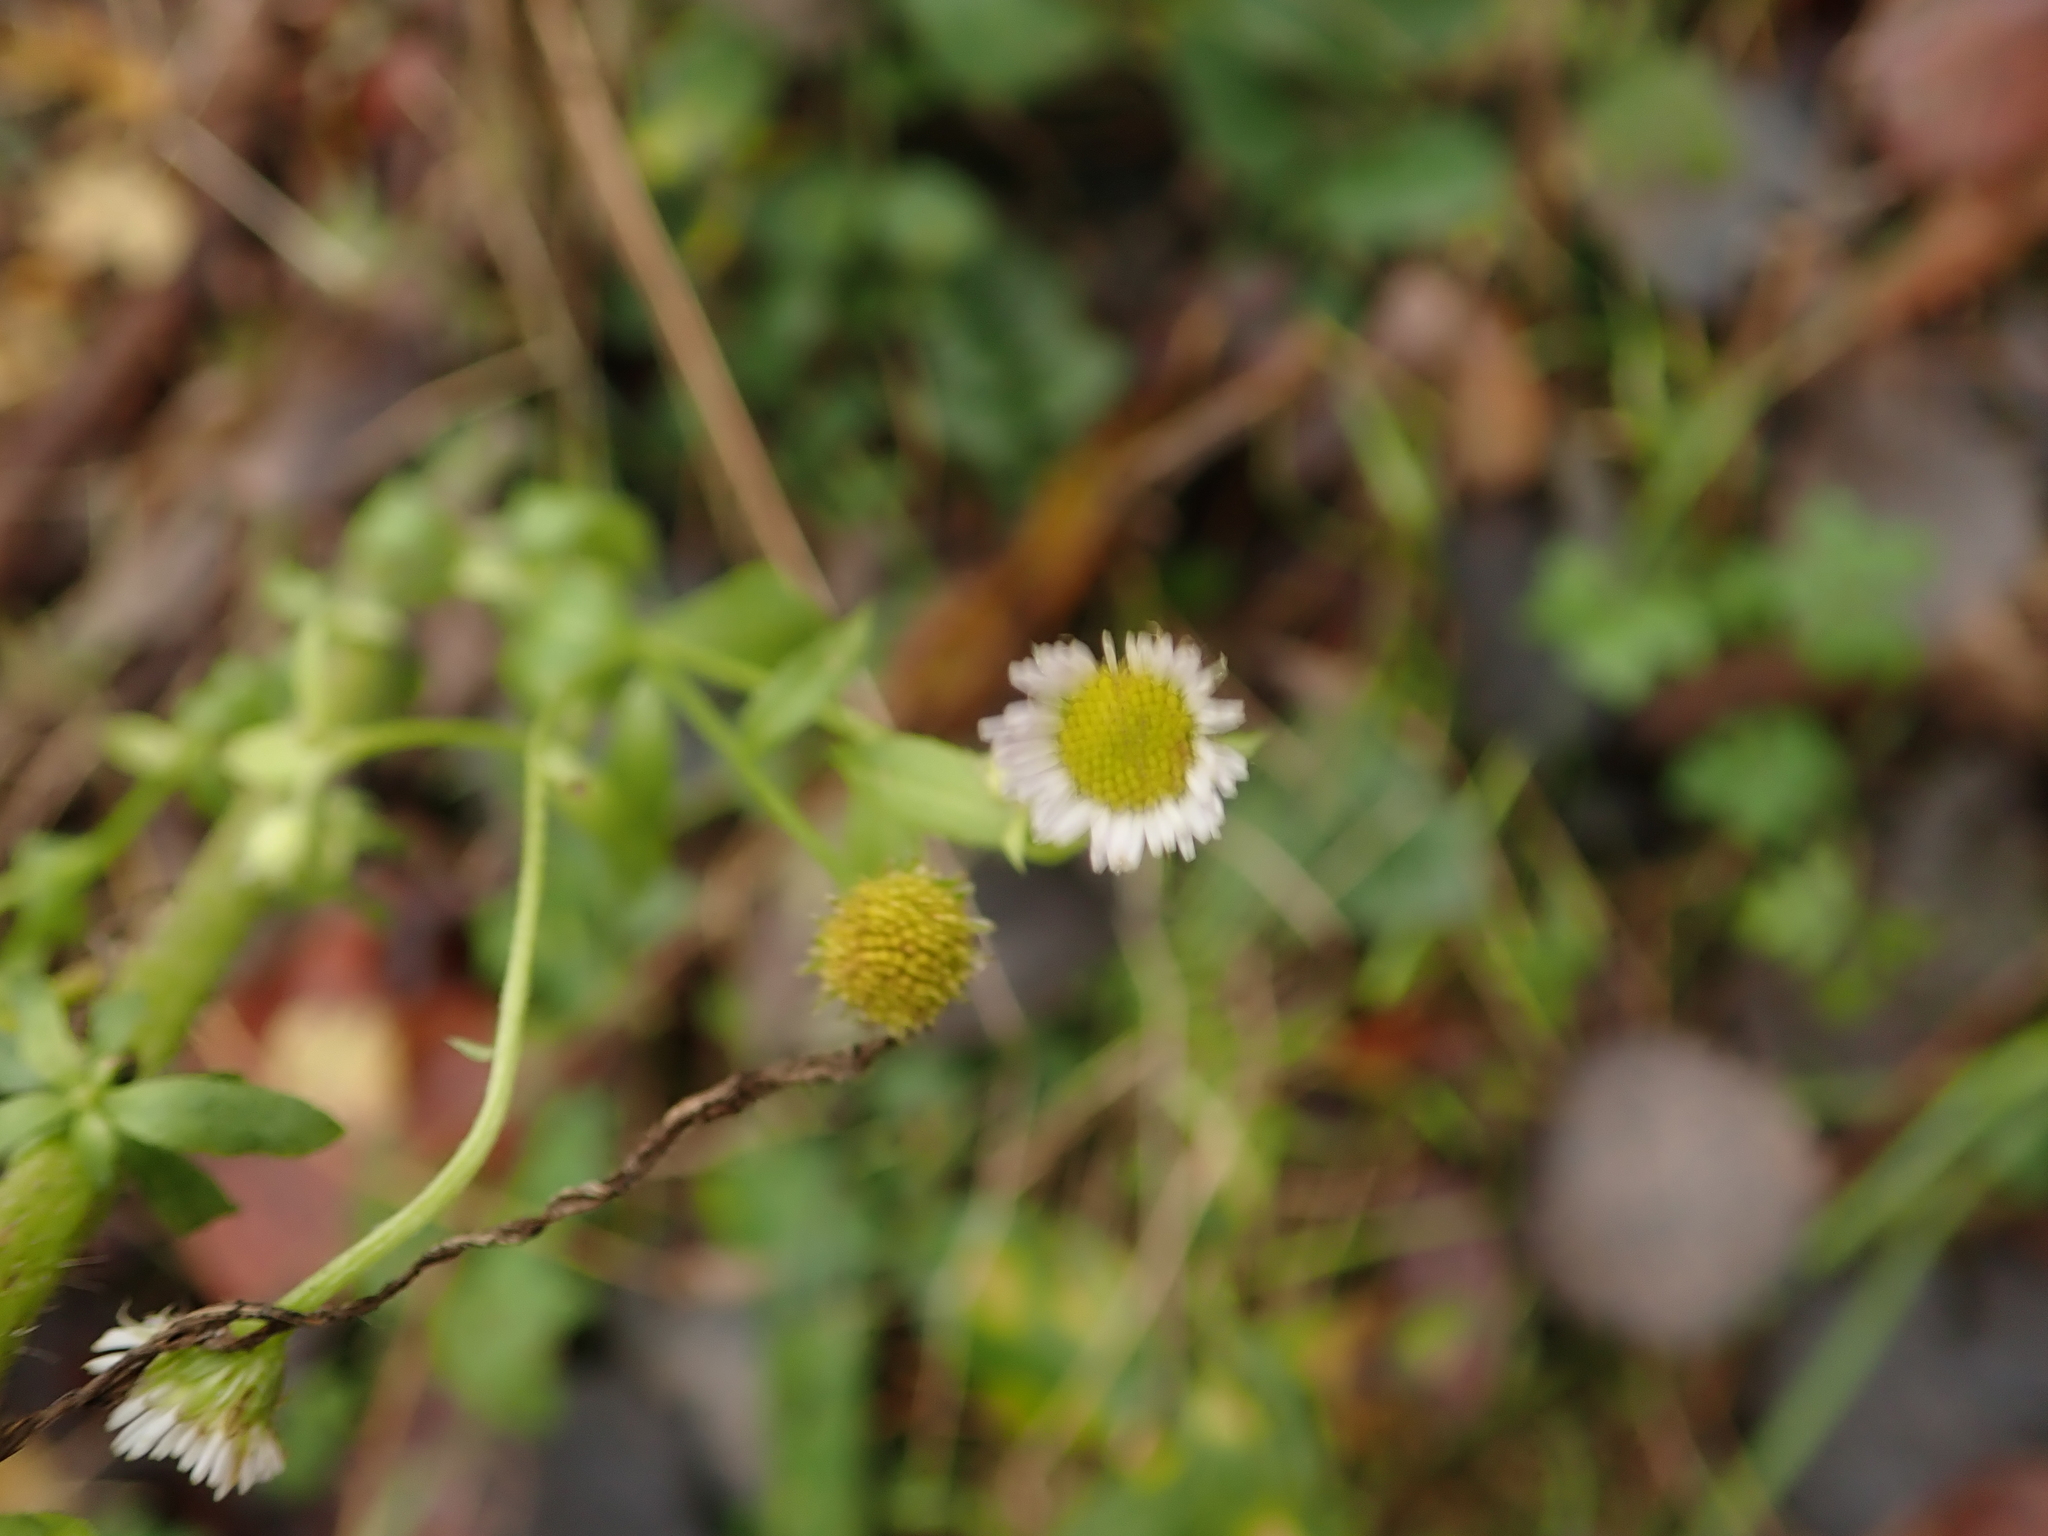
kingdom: Plantae
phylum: Tracheophyta
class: Magnoliopsida
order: Asterales
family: Asteraceae
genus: Erigeron
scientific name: Erigeron annuus
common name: Tall fleabane
